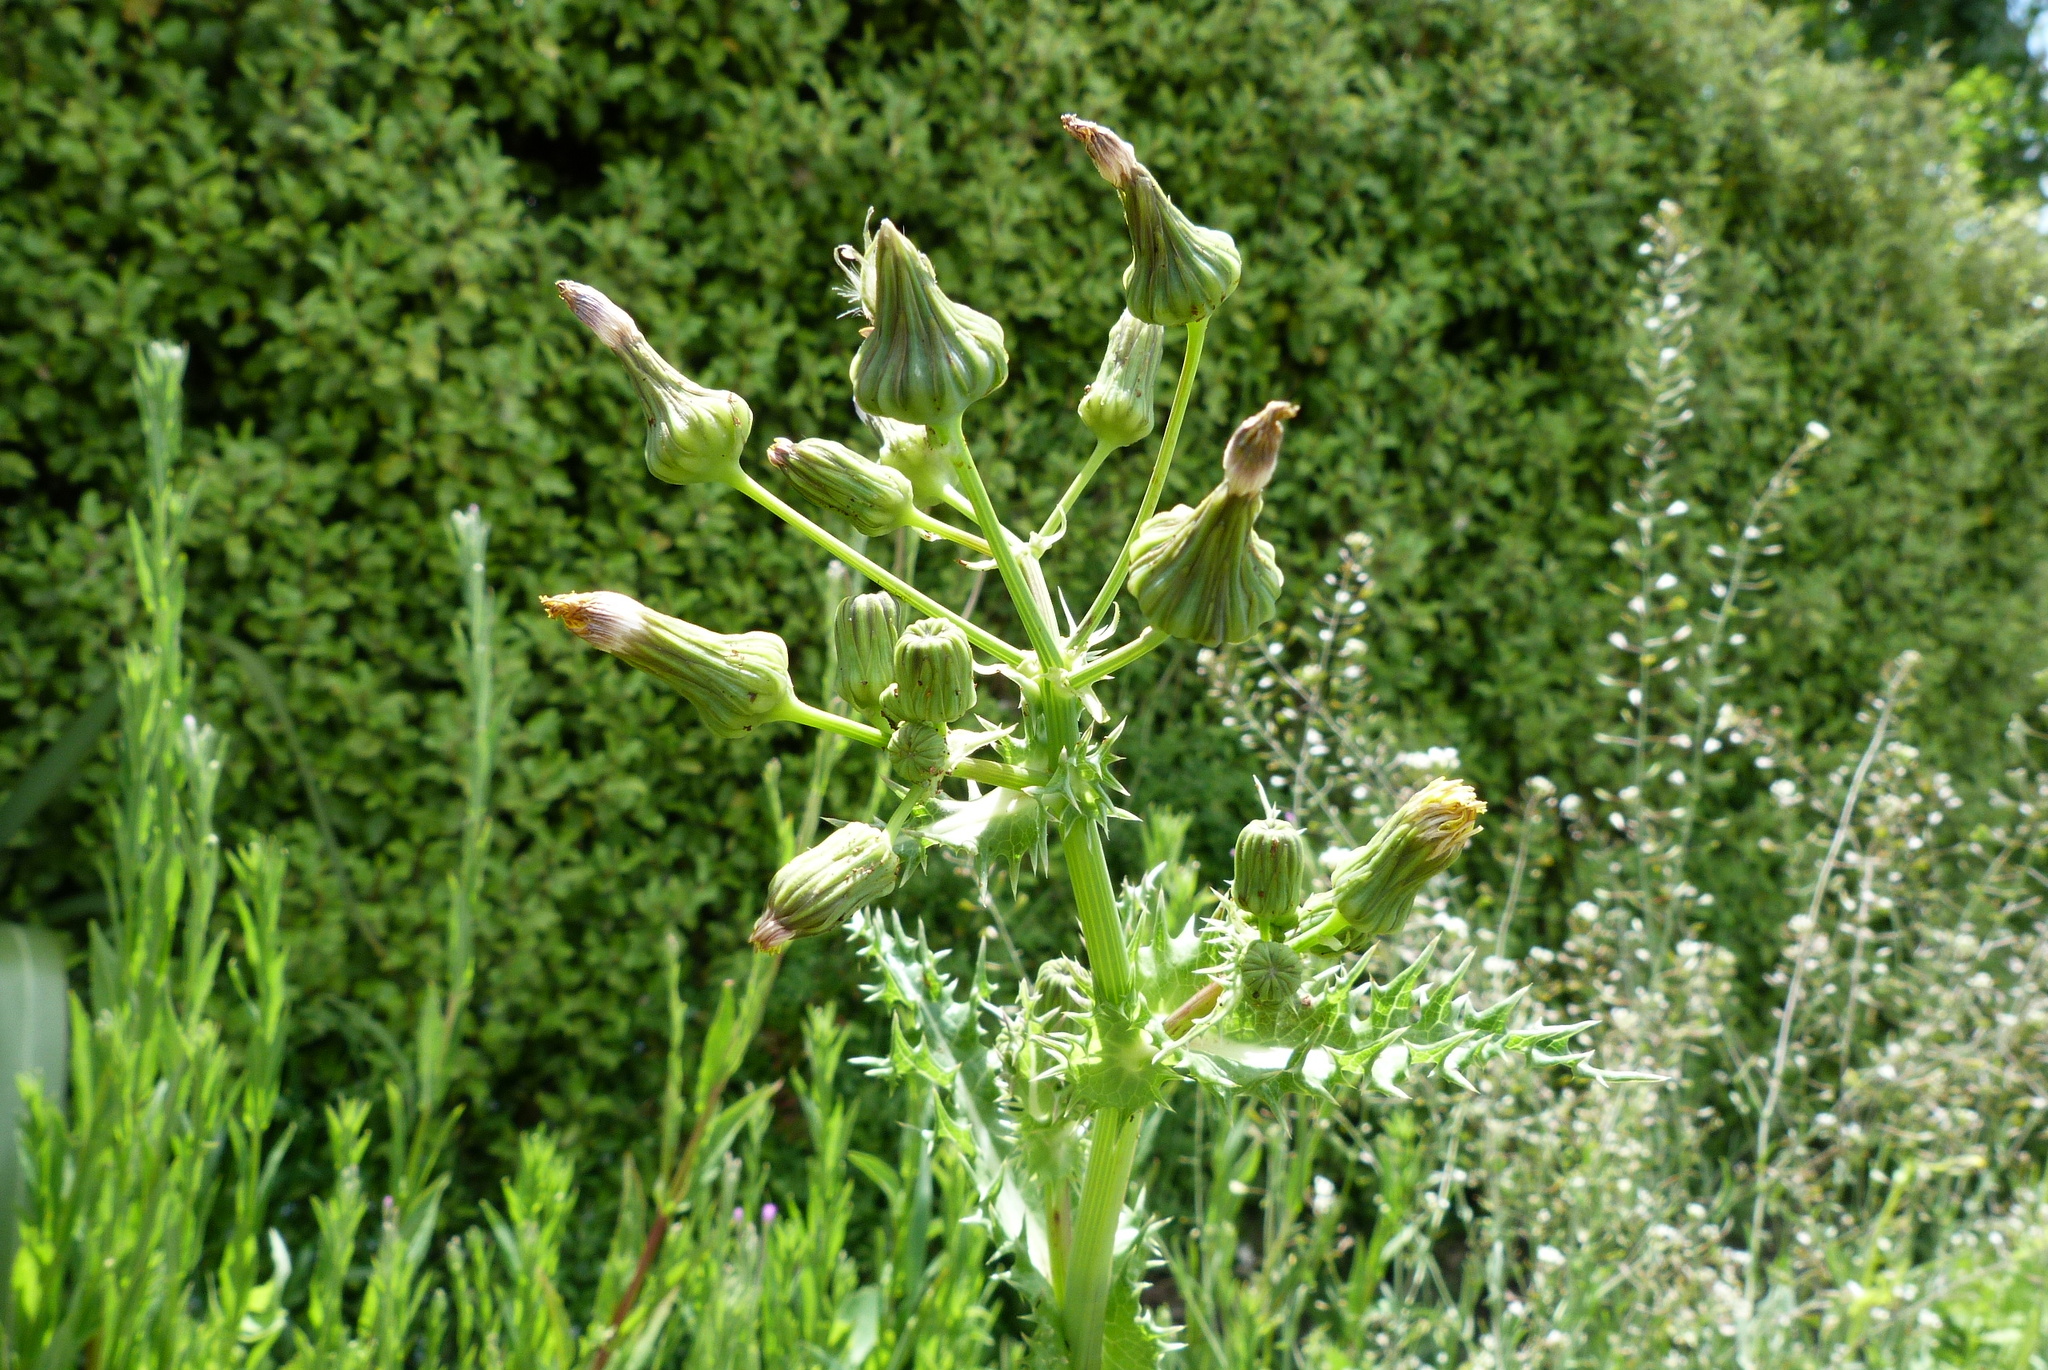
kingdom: Plantae
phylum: Tracheophyta
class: Magnoliopsida
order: Asterales
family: Asteraceae
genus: Sonchus
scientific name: Sonchus asper
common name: Prickly sow-thistle
